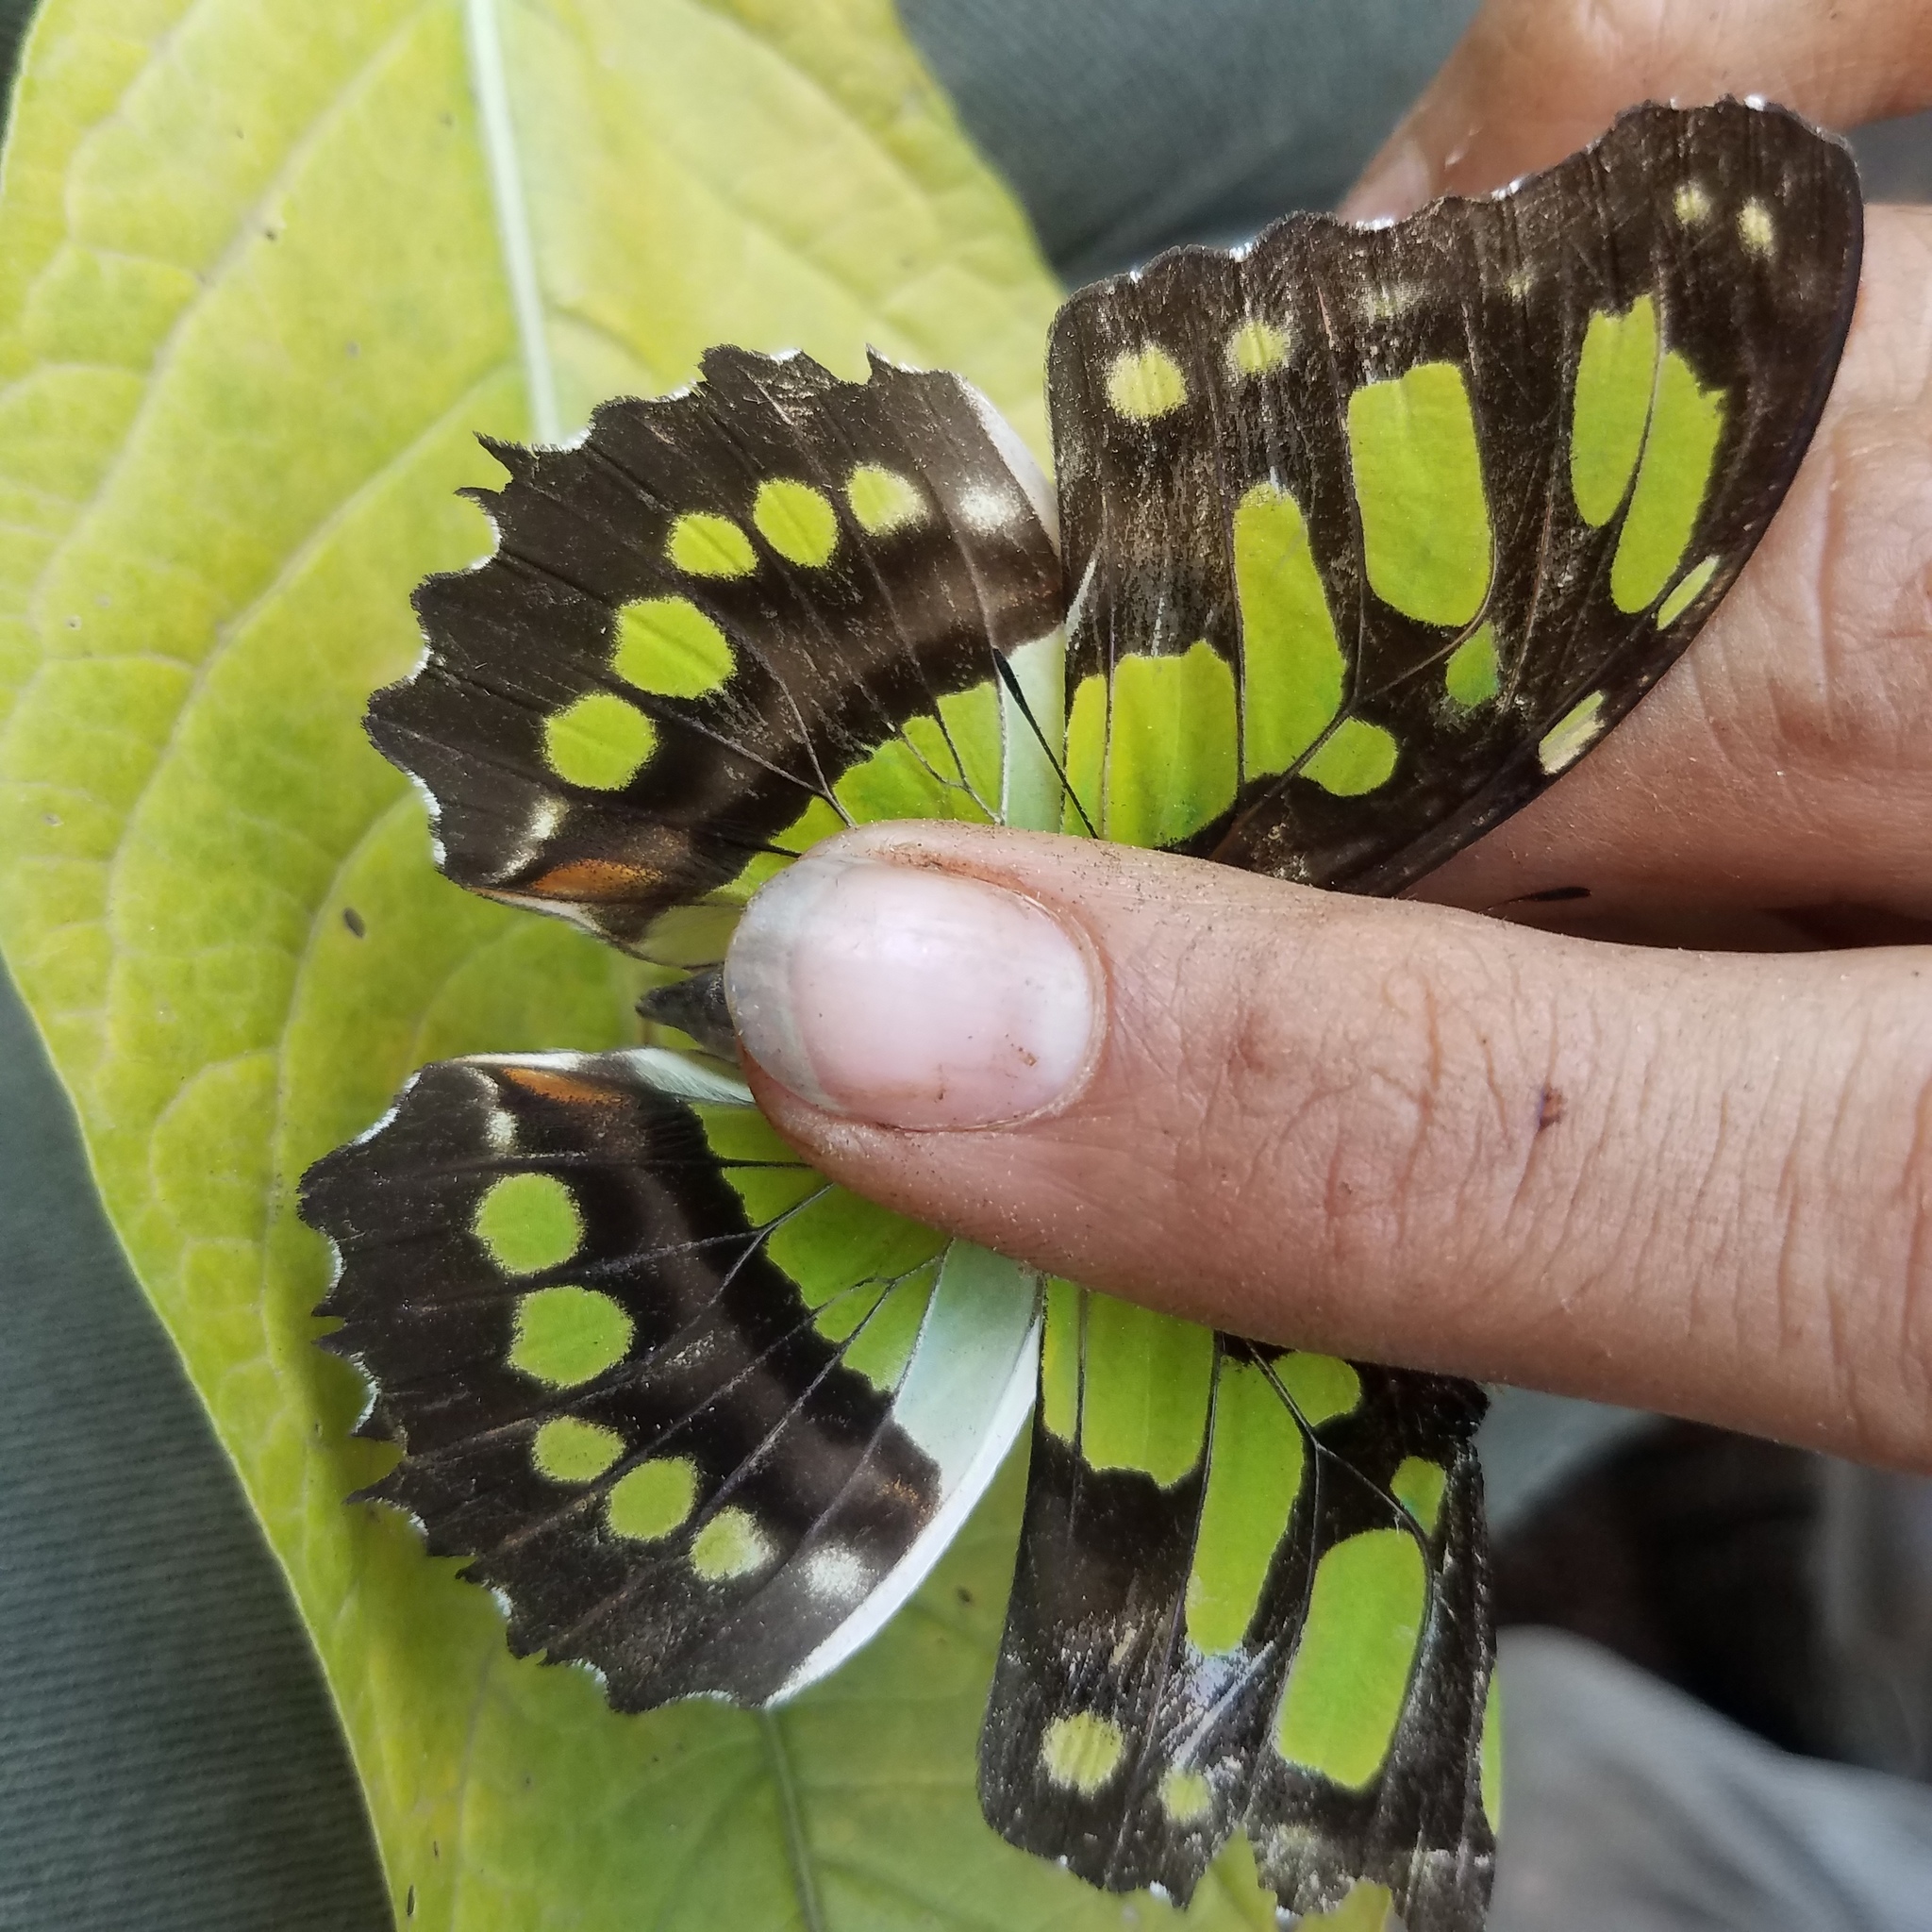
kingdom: Animalia
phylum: Arthropoda
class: Insecta
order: Lepidoptera
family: Nymphalidae
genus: Siproeta
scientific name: Siproeta stelenes
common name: Malachite
